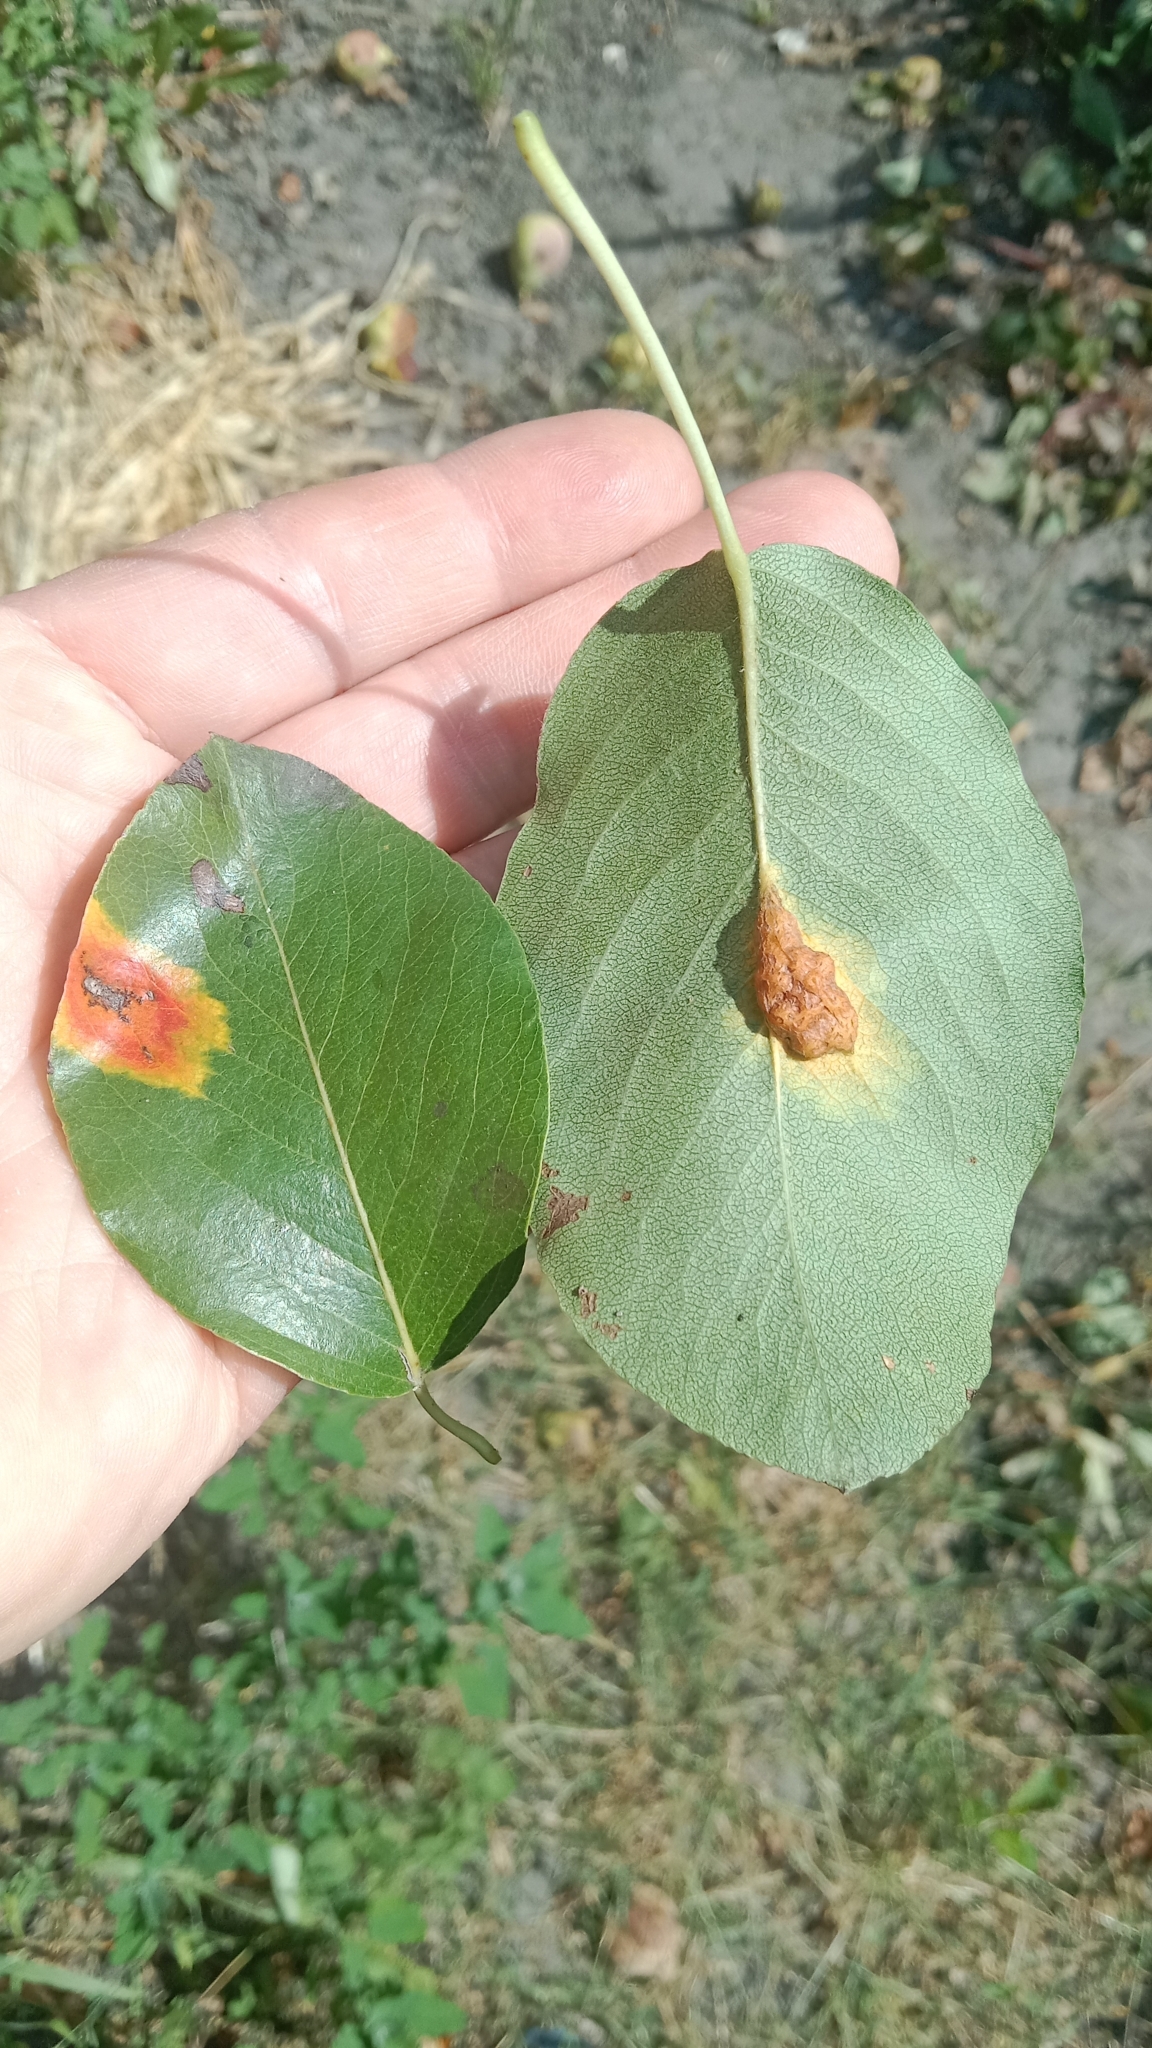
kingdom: Fungi
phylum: Basidiomycota
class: Pucciniomycetes
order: Pucciniales
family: Gymnosporangiaceae
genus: Gymnosporangium
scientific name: Gymnosporangium sabinae
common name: Pear trellis rust fungus
